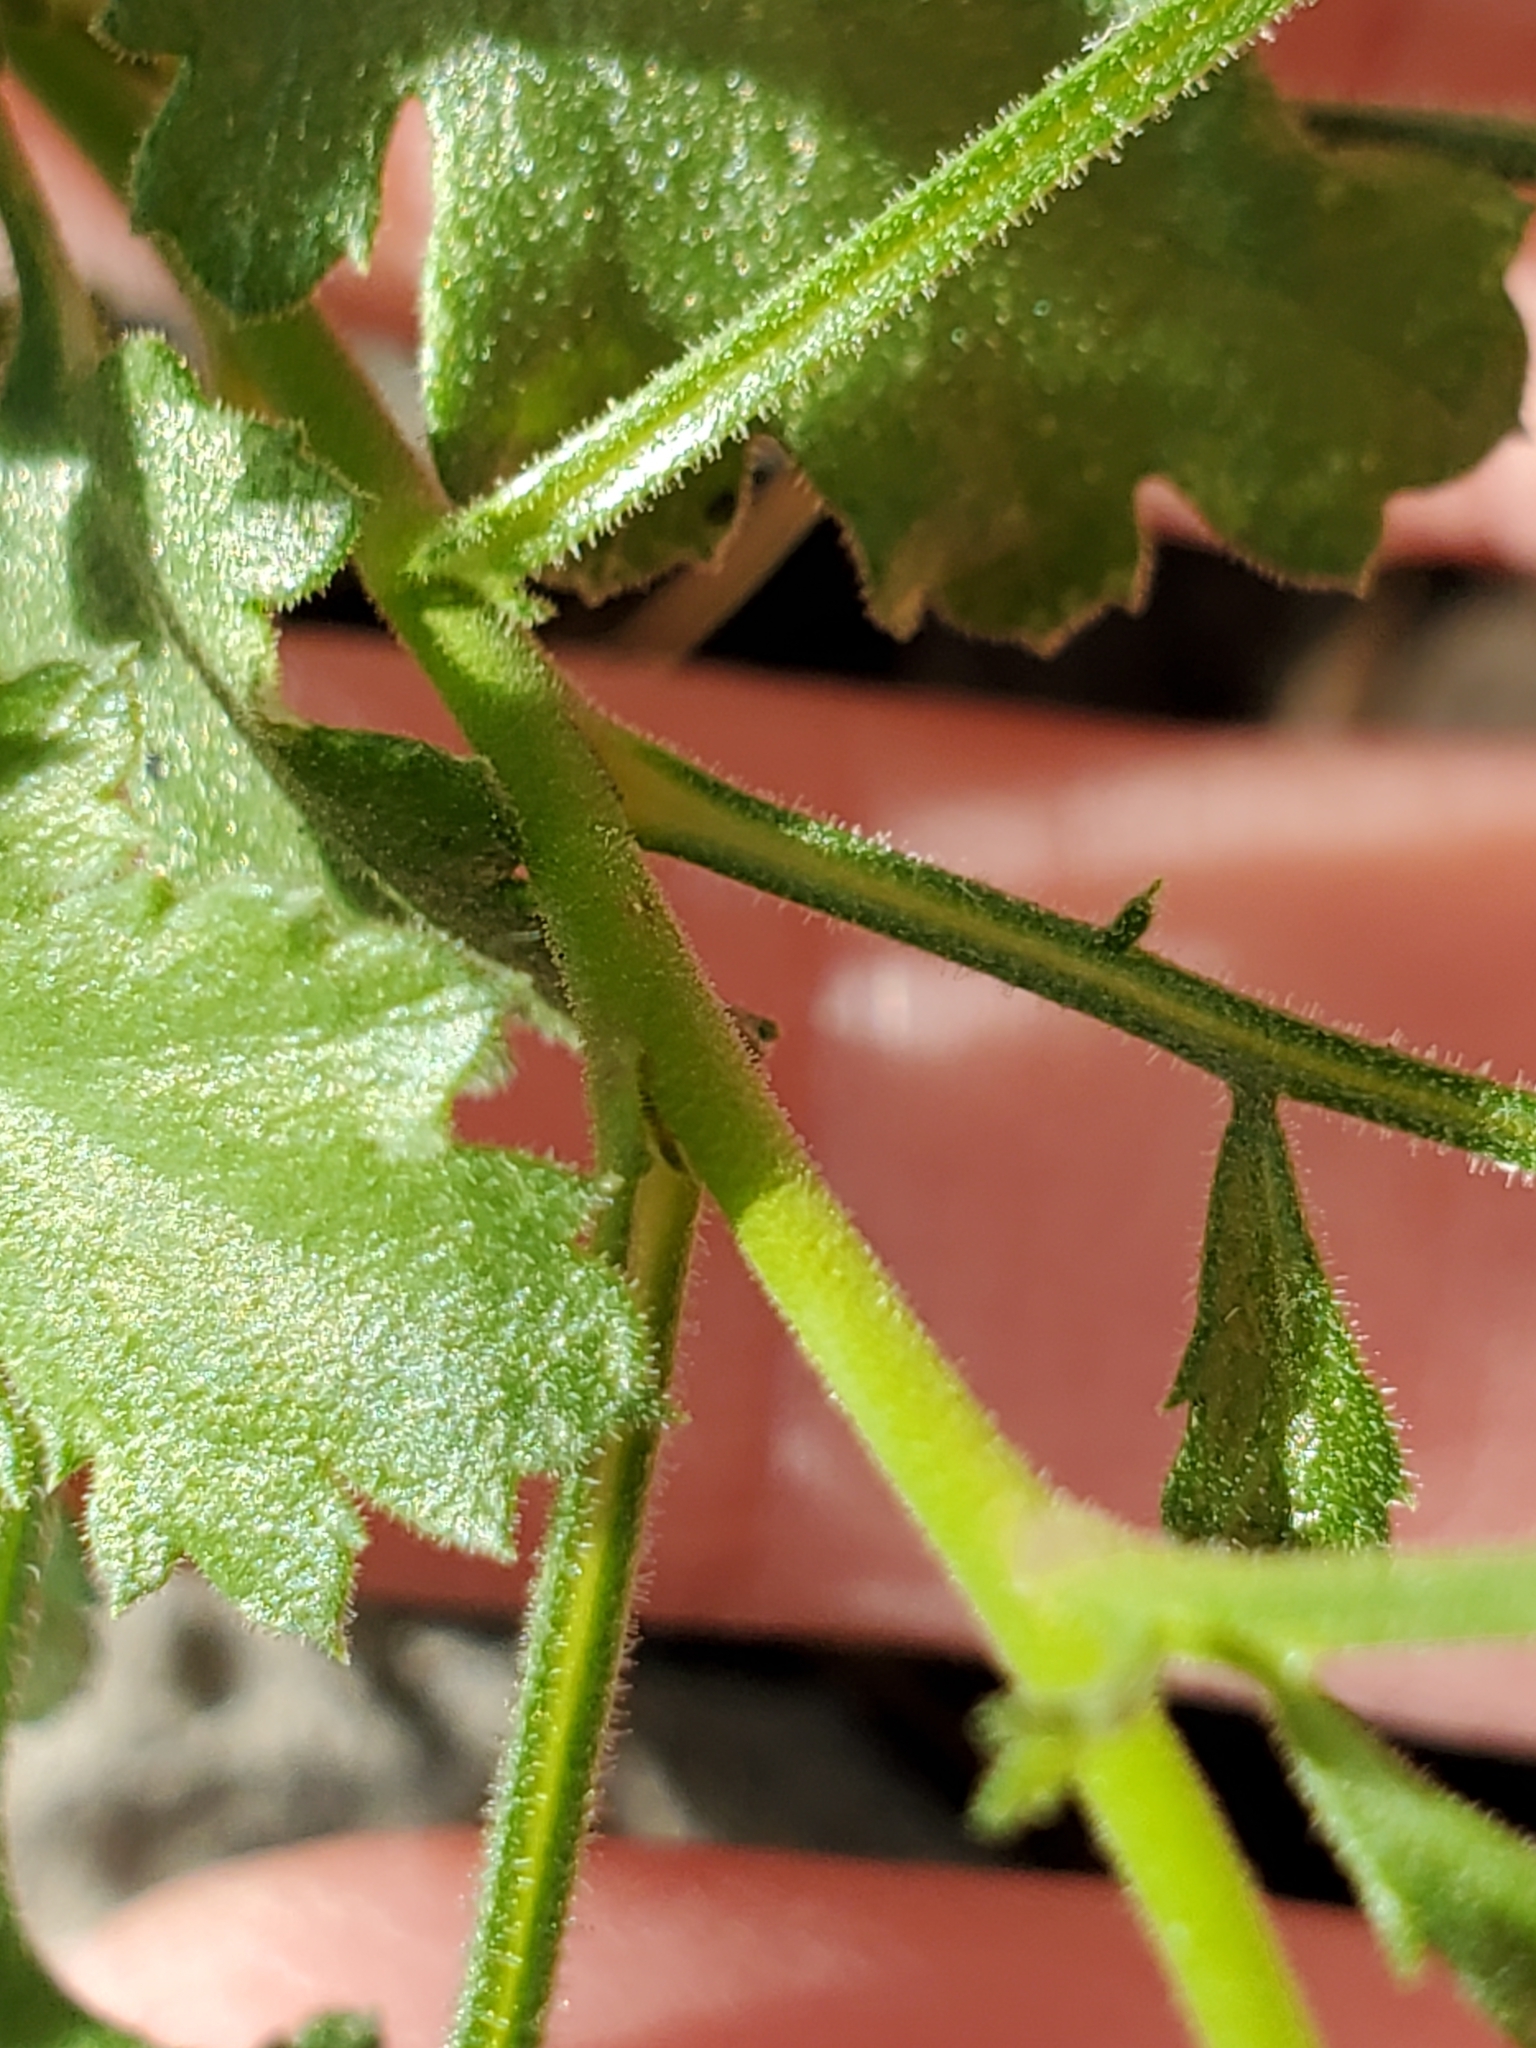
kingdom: Plantae
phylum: Tracheophyta
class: Magnoliopsida
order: Ericales
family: Polemoniaceae
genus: Giliastrum
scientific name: Giliastrum incisum
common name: Splitleaf gilia
